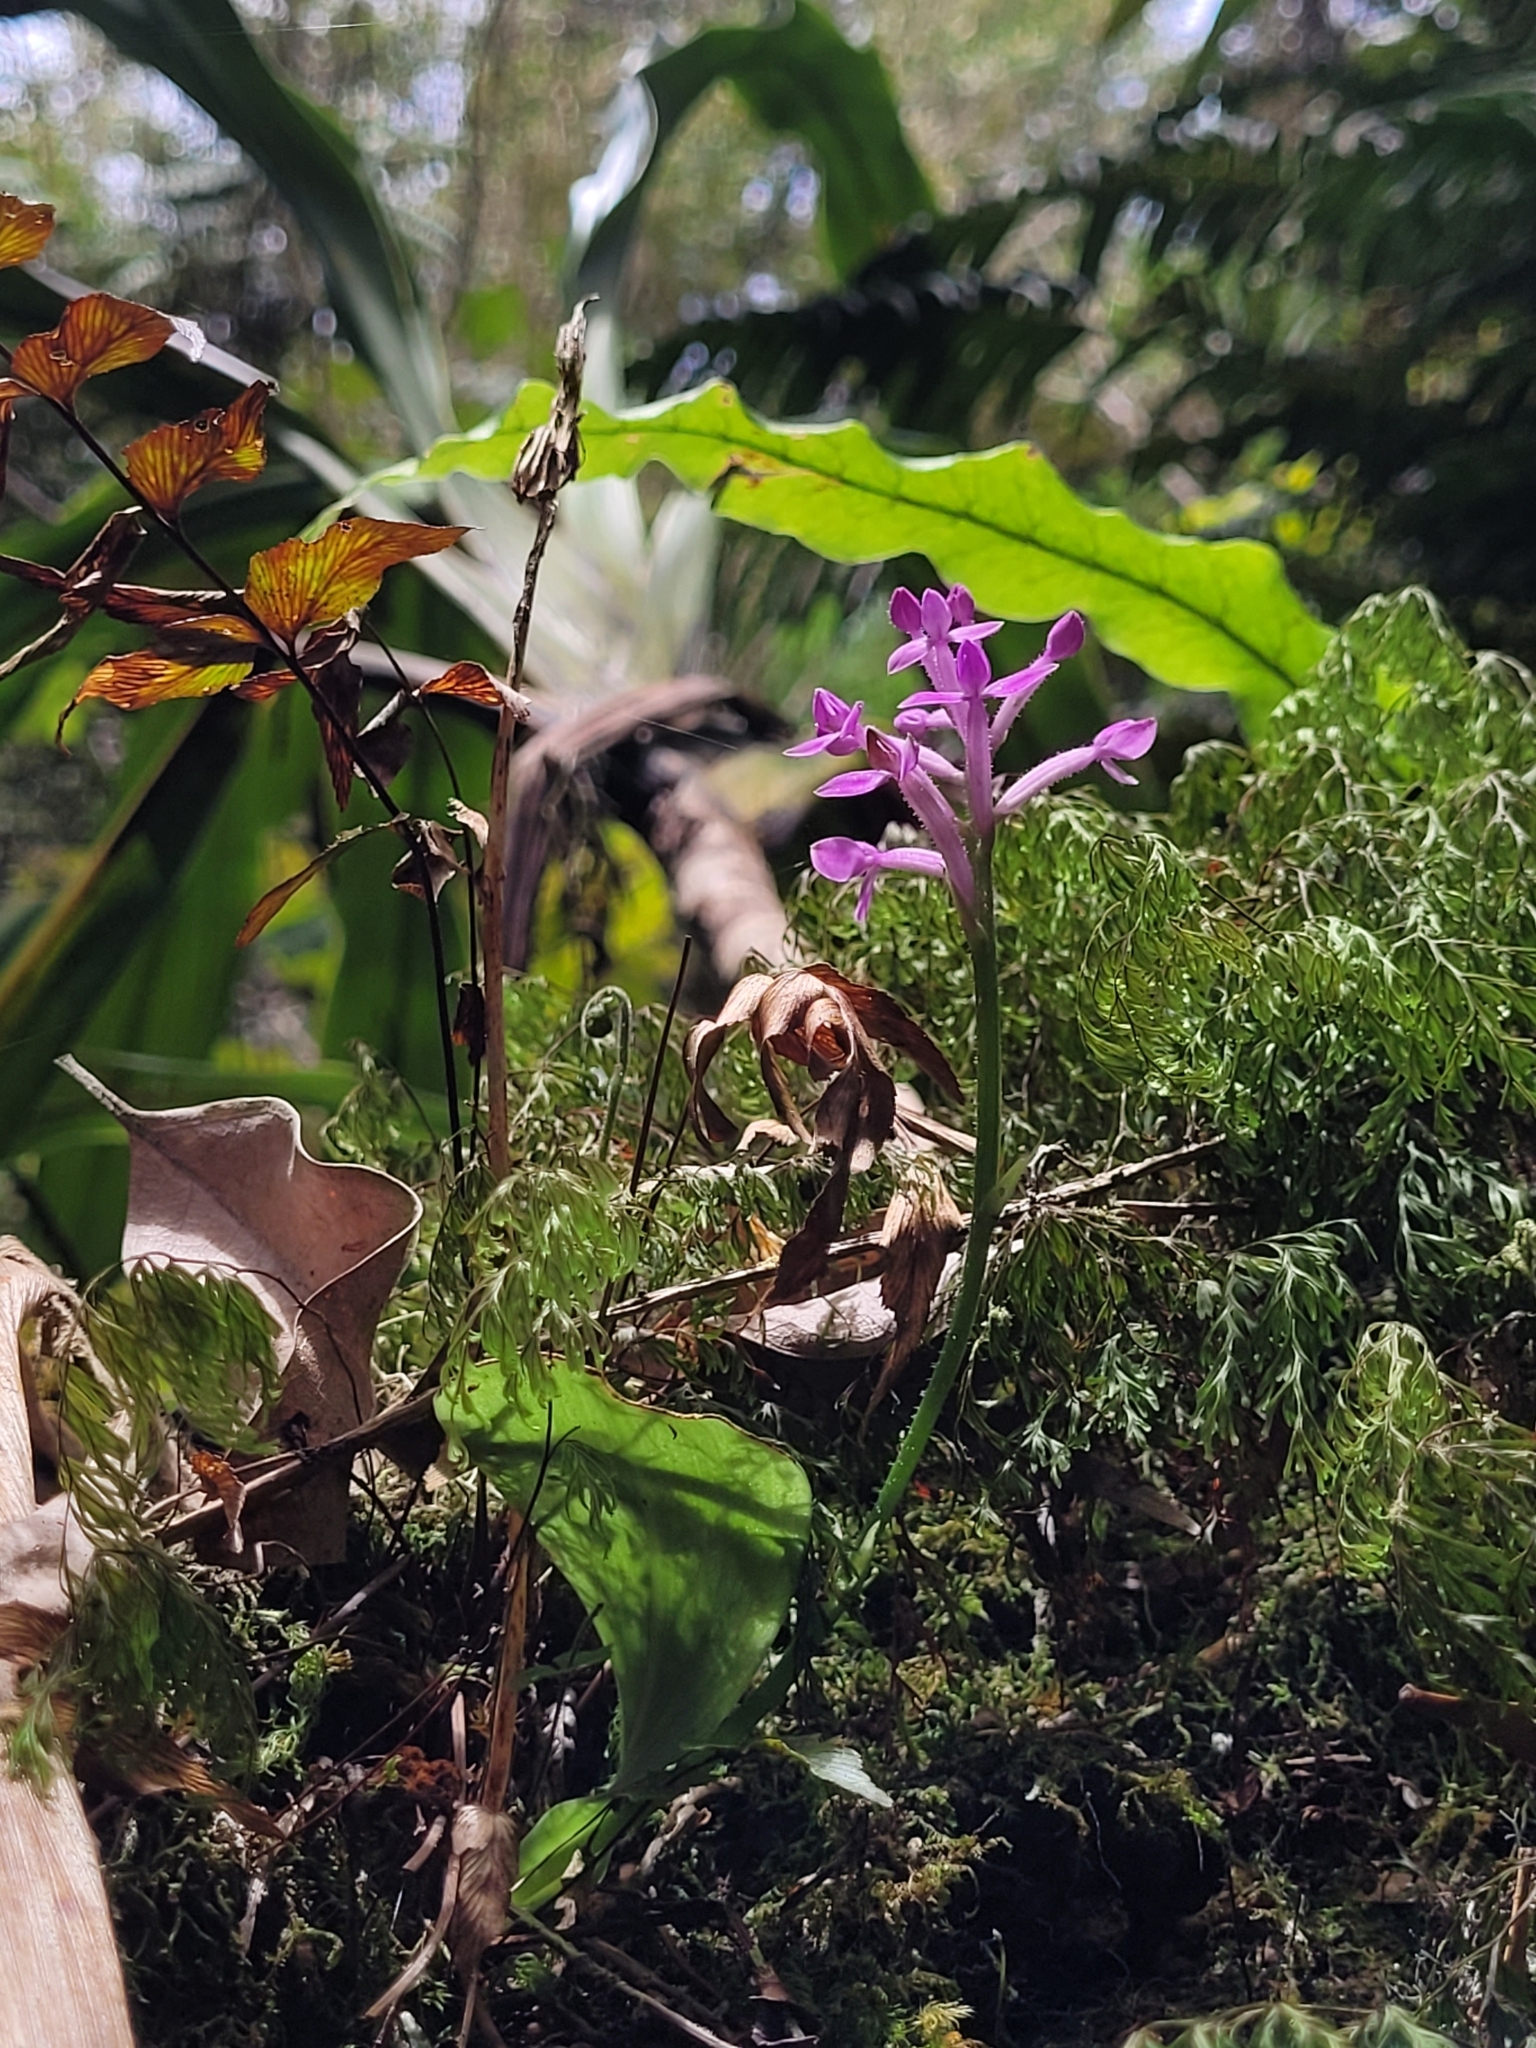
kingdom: Plantae
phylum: Tracheophyta
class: Liliopsida
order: Asparagales
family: Orchidaceae
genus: Cynorkis
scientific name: Cynorkis inermis
